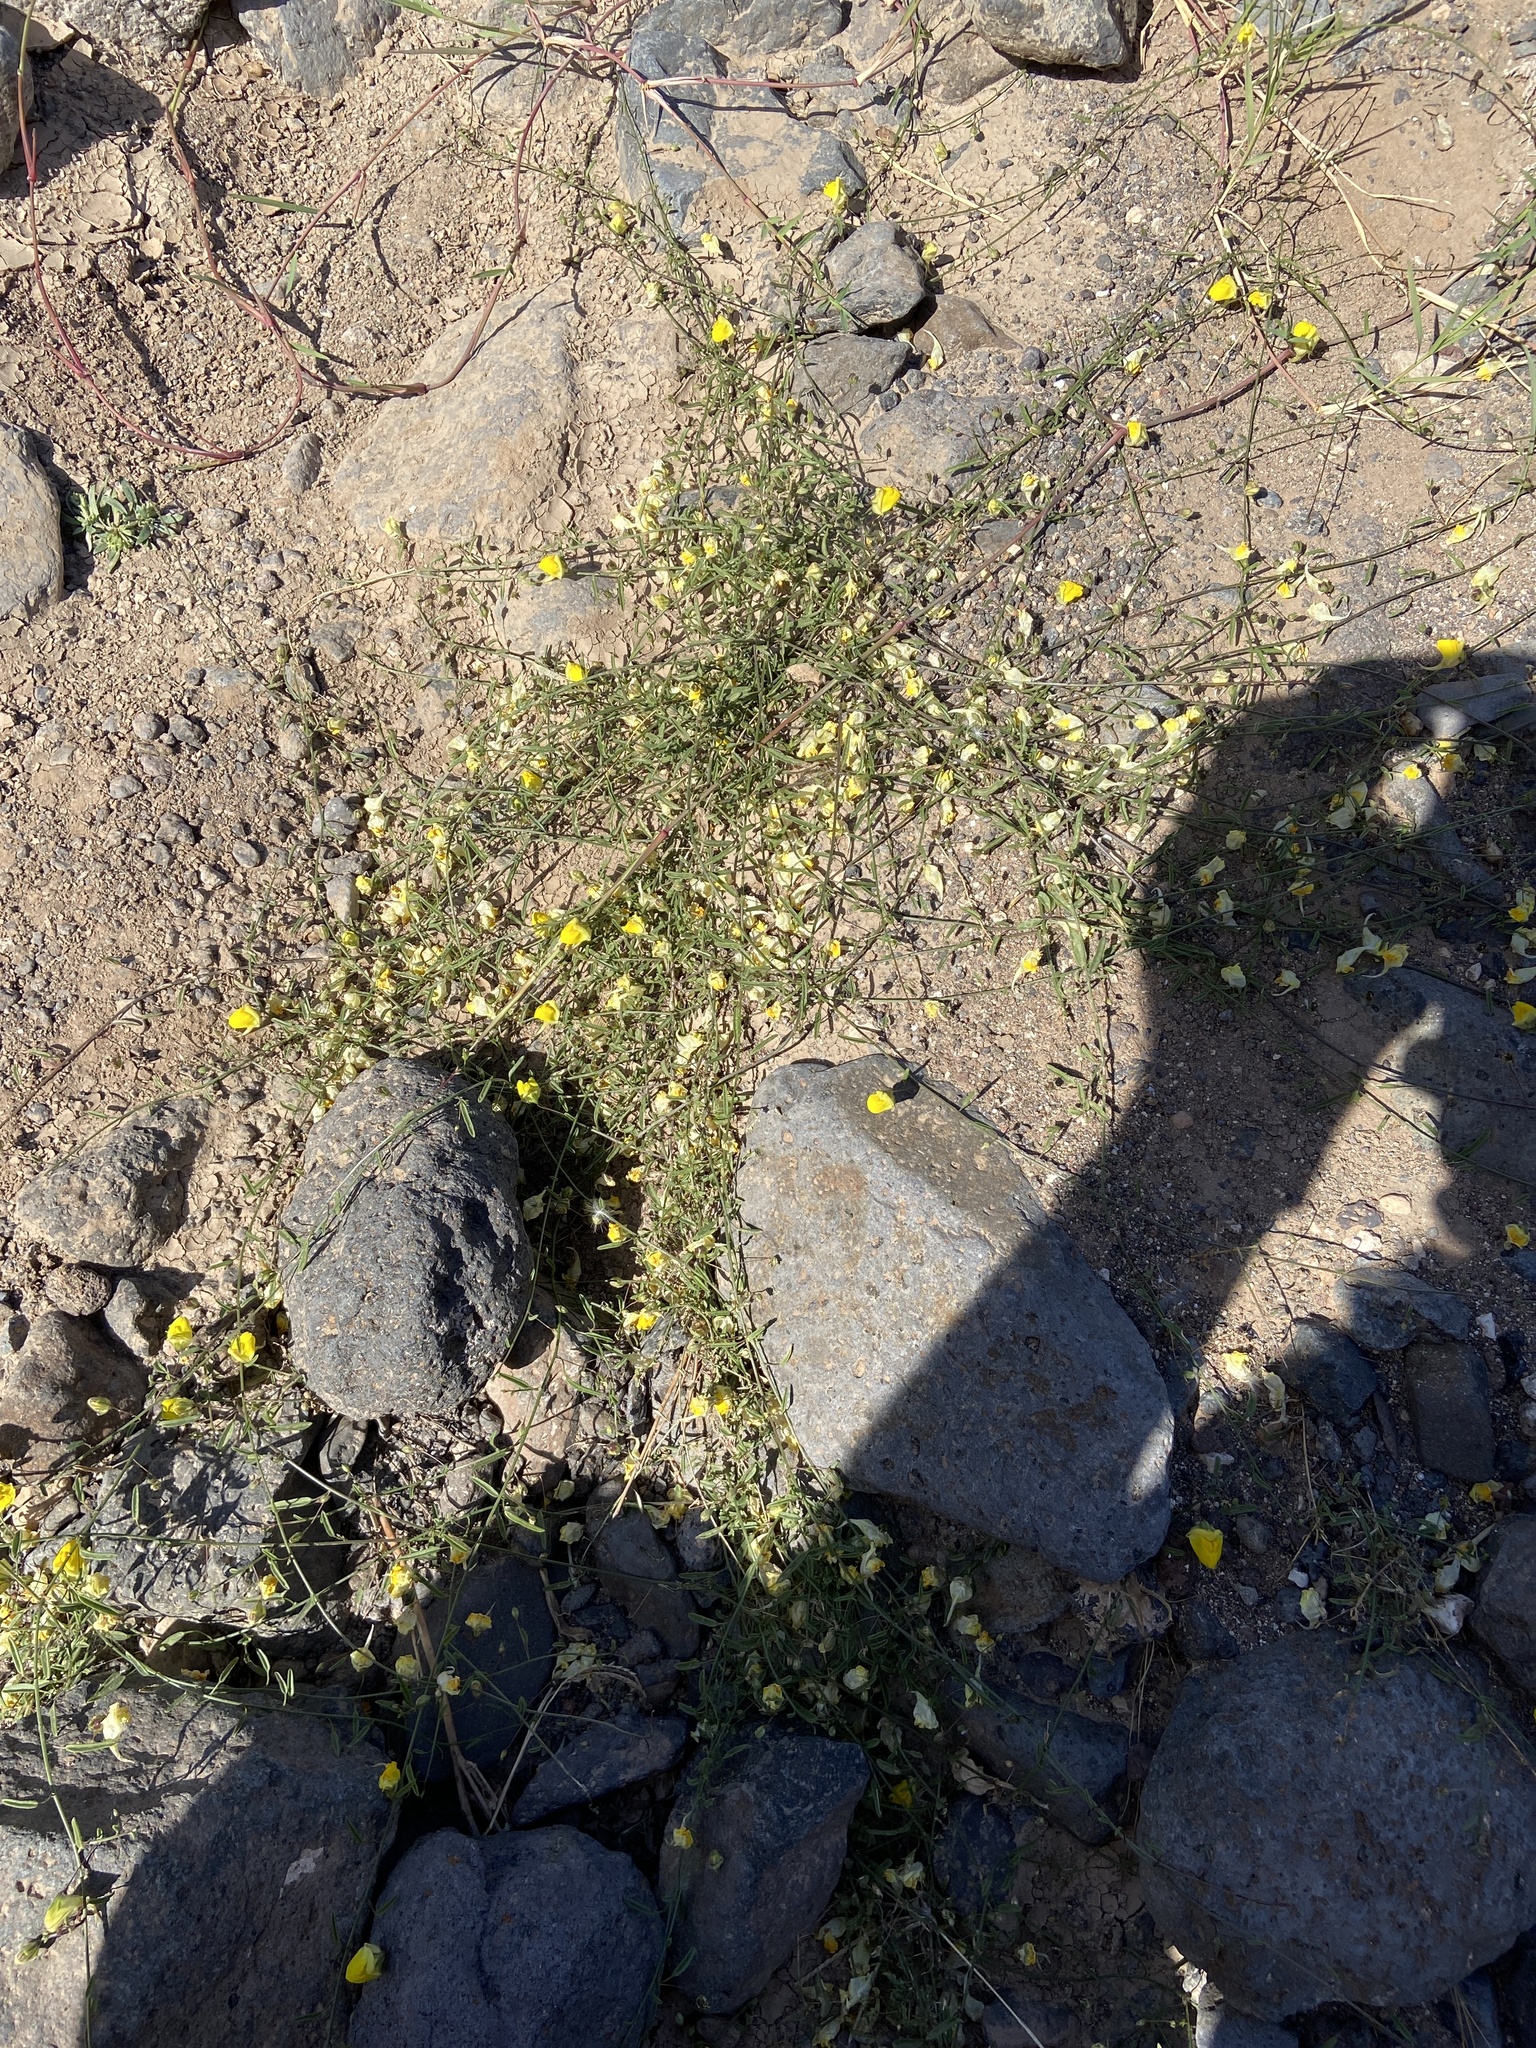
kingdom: Plantae
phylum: Tracheophyta
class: Magnoliopsida
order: Lamiales
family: Plantaginaceae
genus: Nanorrhinum
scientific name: Nanorrhinum heterophyllum
